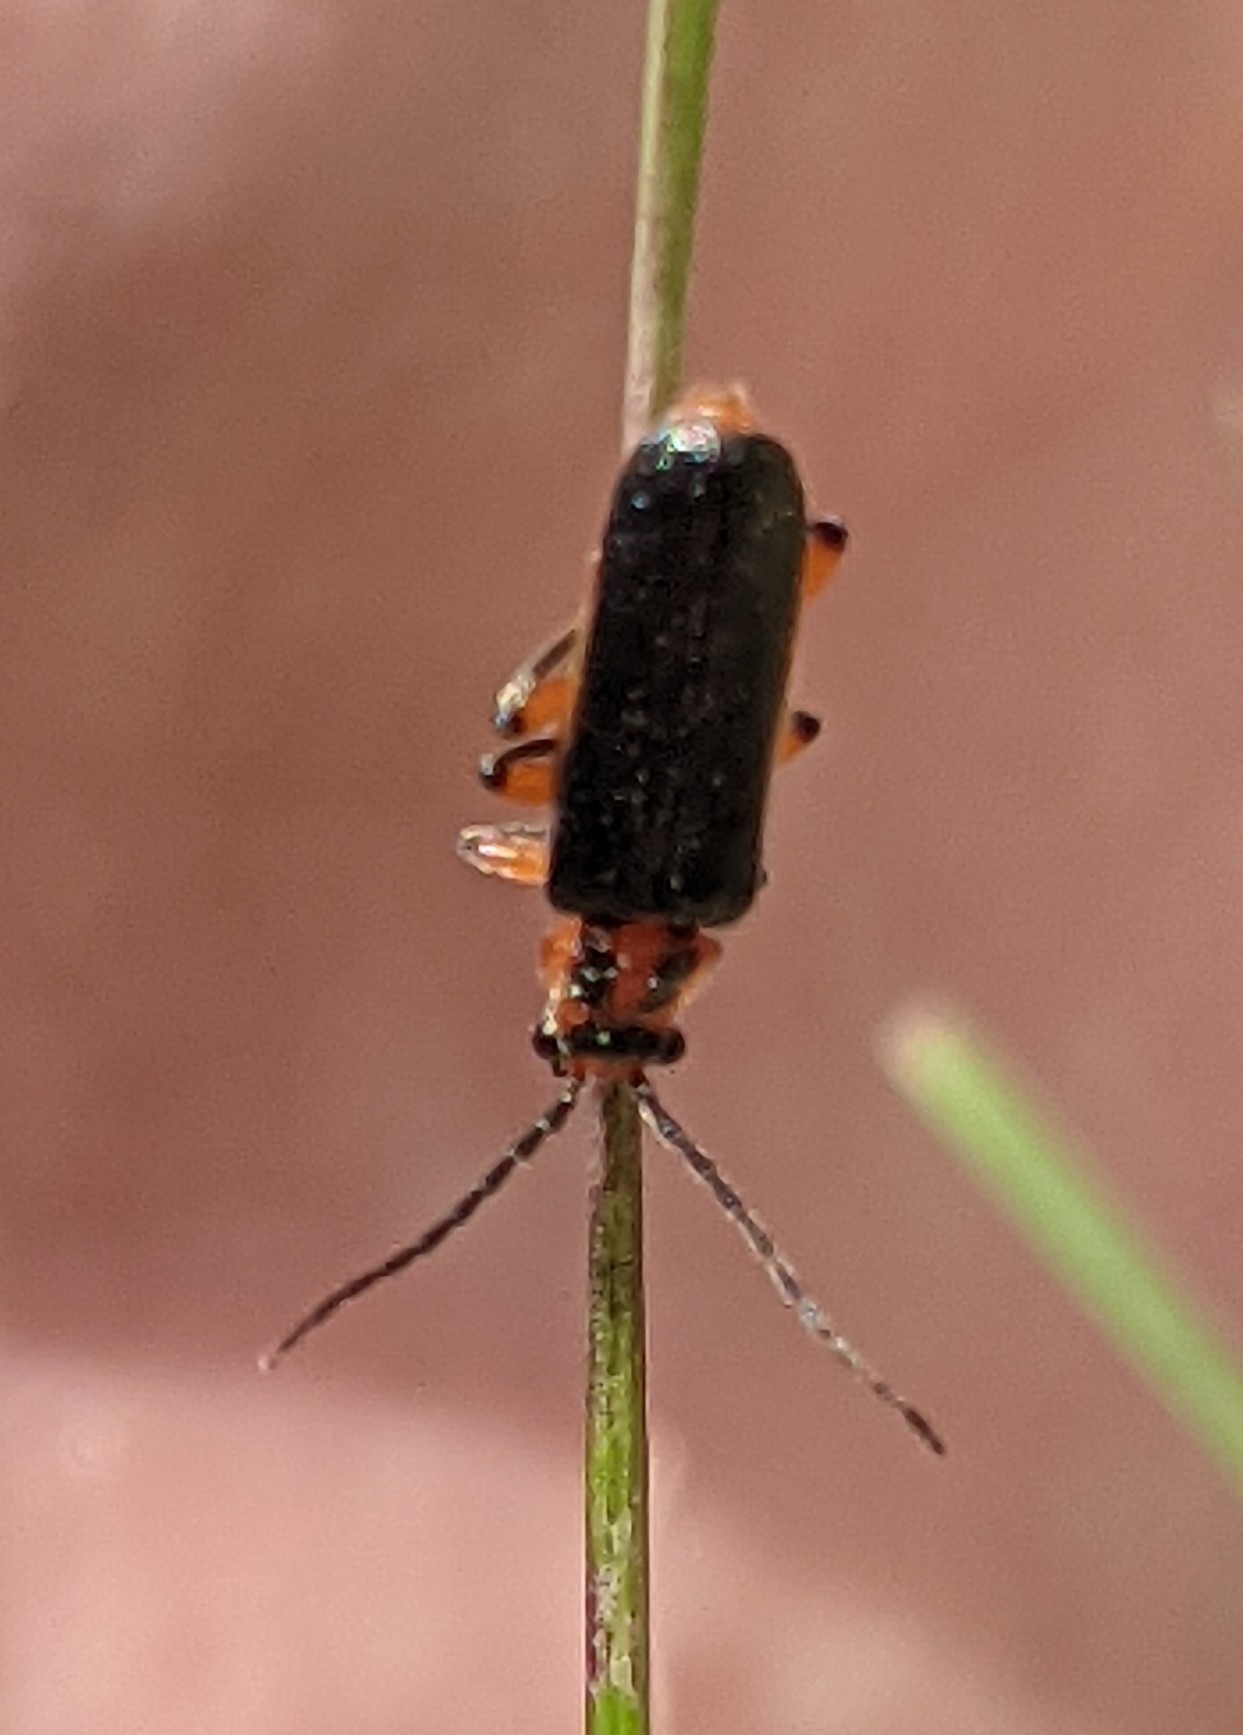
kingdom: Animalia
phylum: Arthropoda
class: Insecta
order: Coleoptera
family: Cantharidae
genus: Atalantycha
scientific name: Atalantycha bilineata
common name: Two-lined leatherwing
